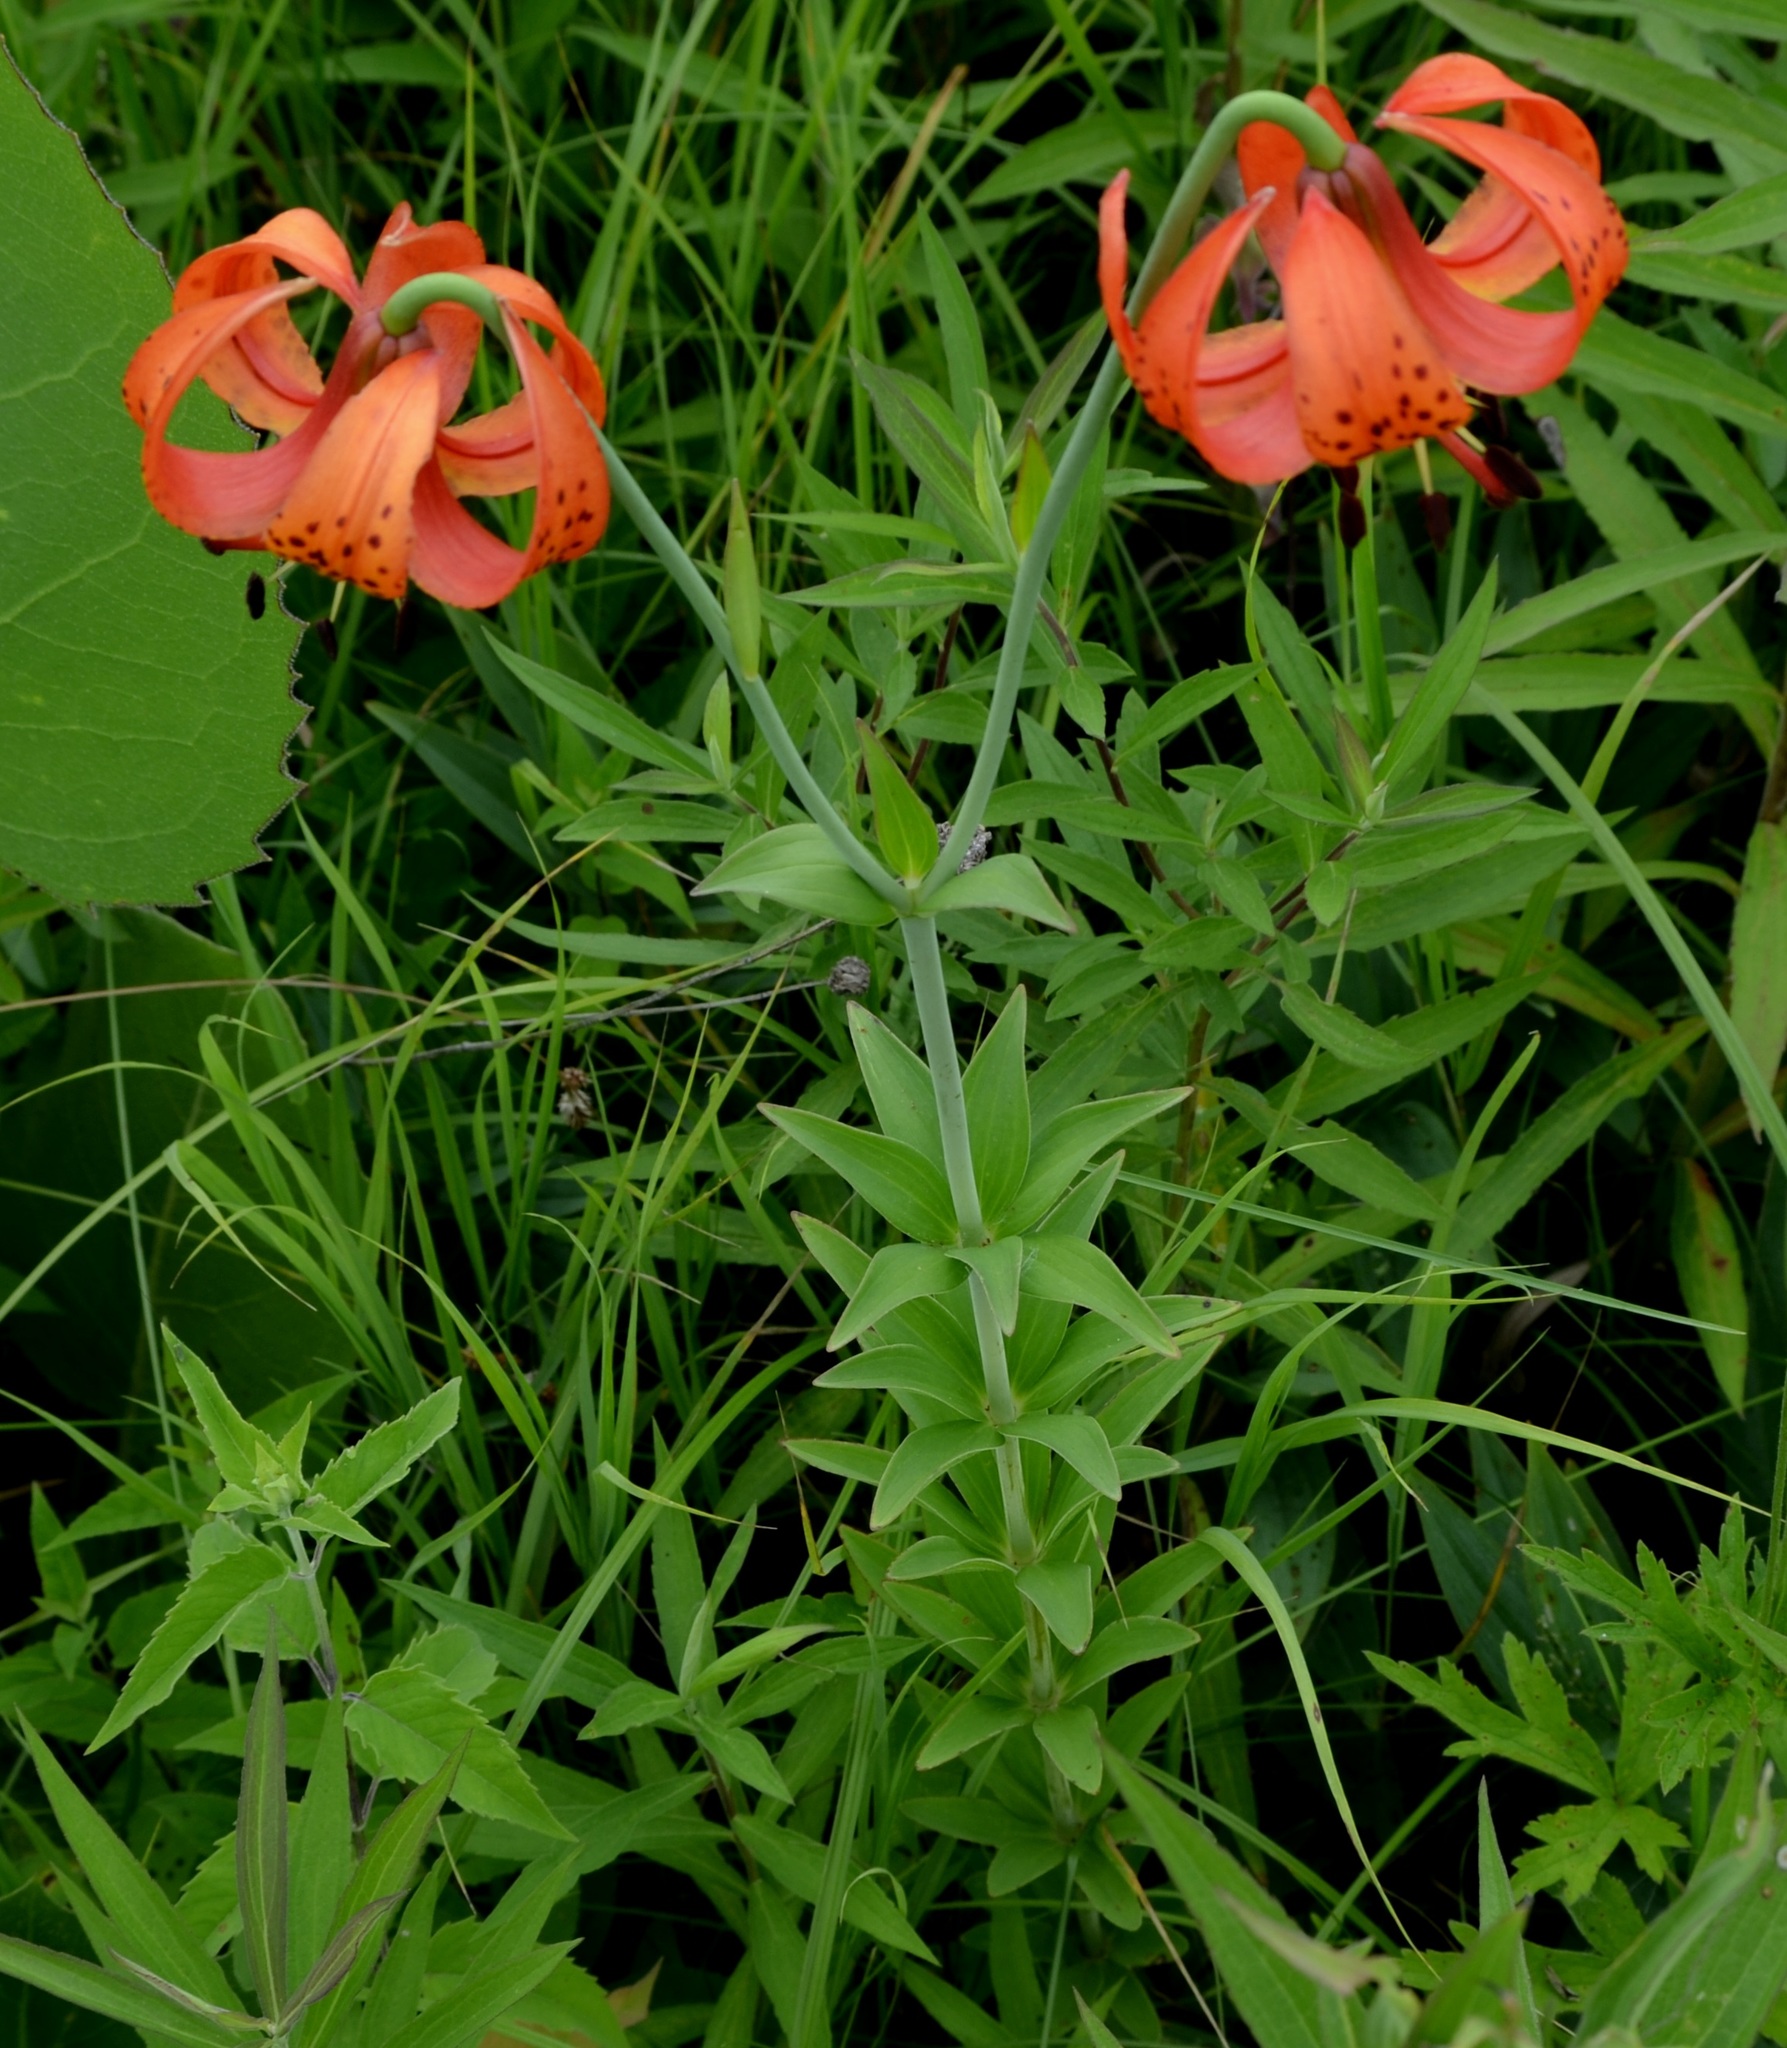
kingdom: Plantae
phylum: Tracheophyta
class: Liliopsida
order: Liliales
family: Liliaceae
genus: Lilium
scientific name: Lilium michiganense
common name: Michigan lily
